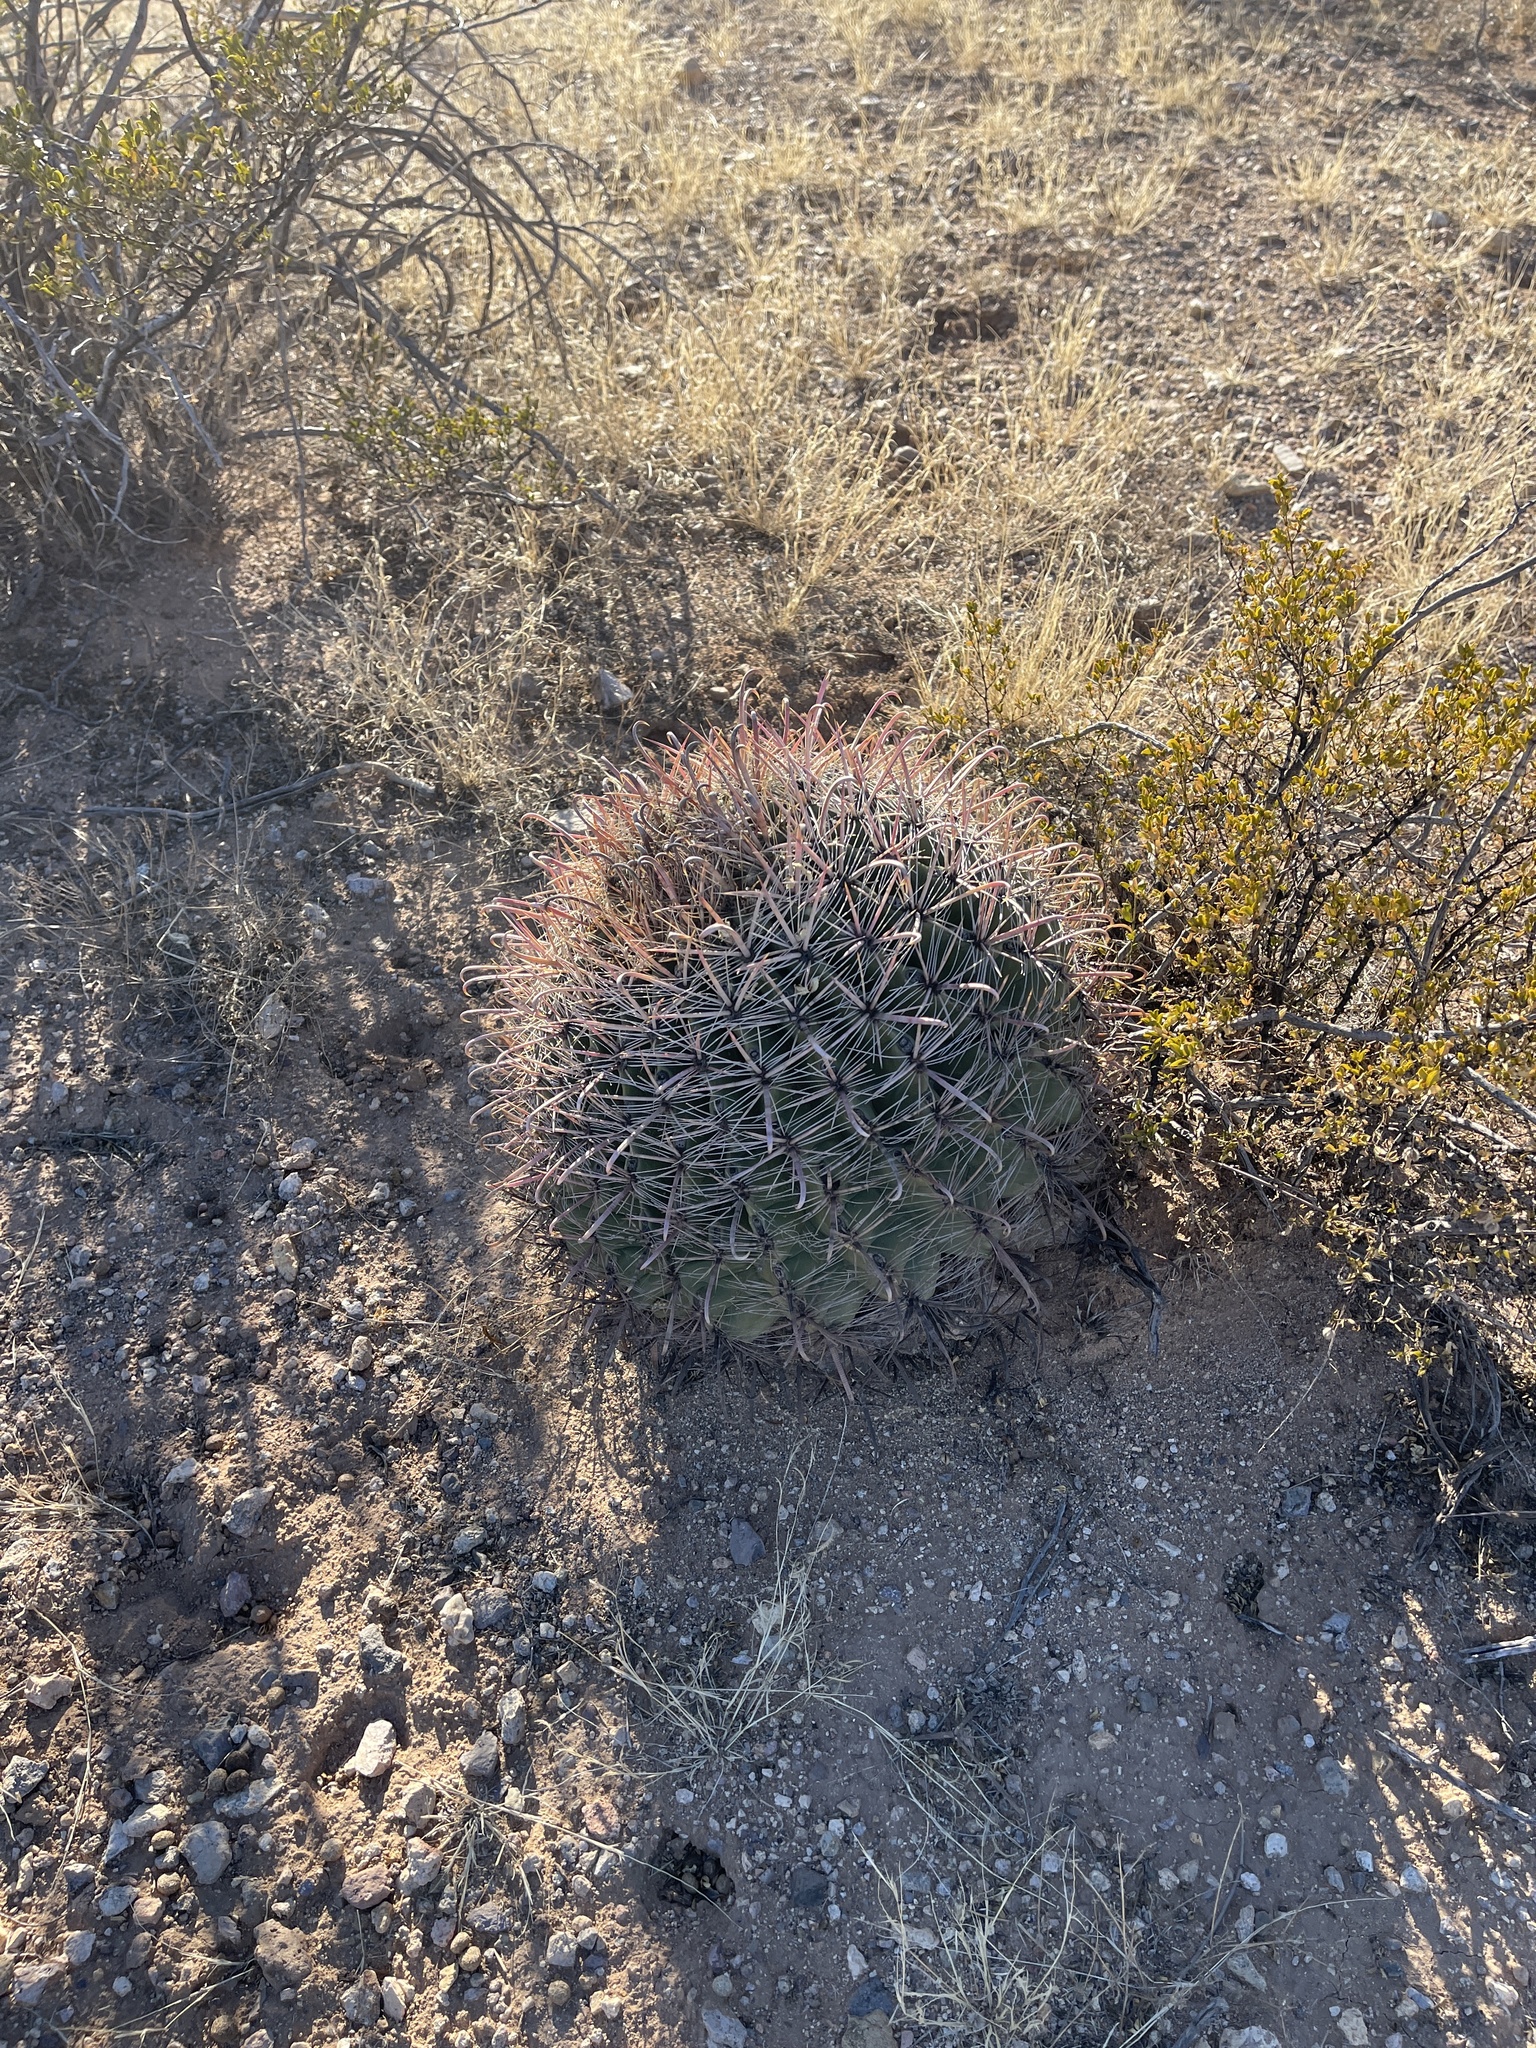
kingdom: Plantae
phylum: Tracheophyta
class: Magnoliopsida
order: Caryophyllales
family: Cactaceae
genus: Ferocactus
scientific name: Ferocactus wislizeni
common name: Candy barrel cactus
